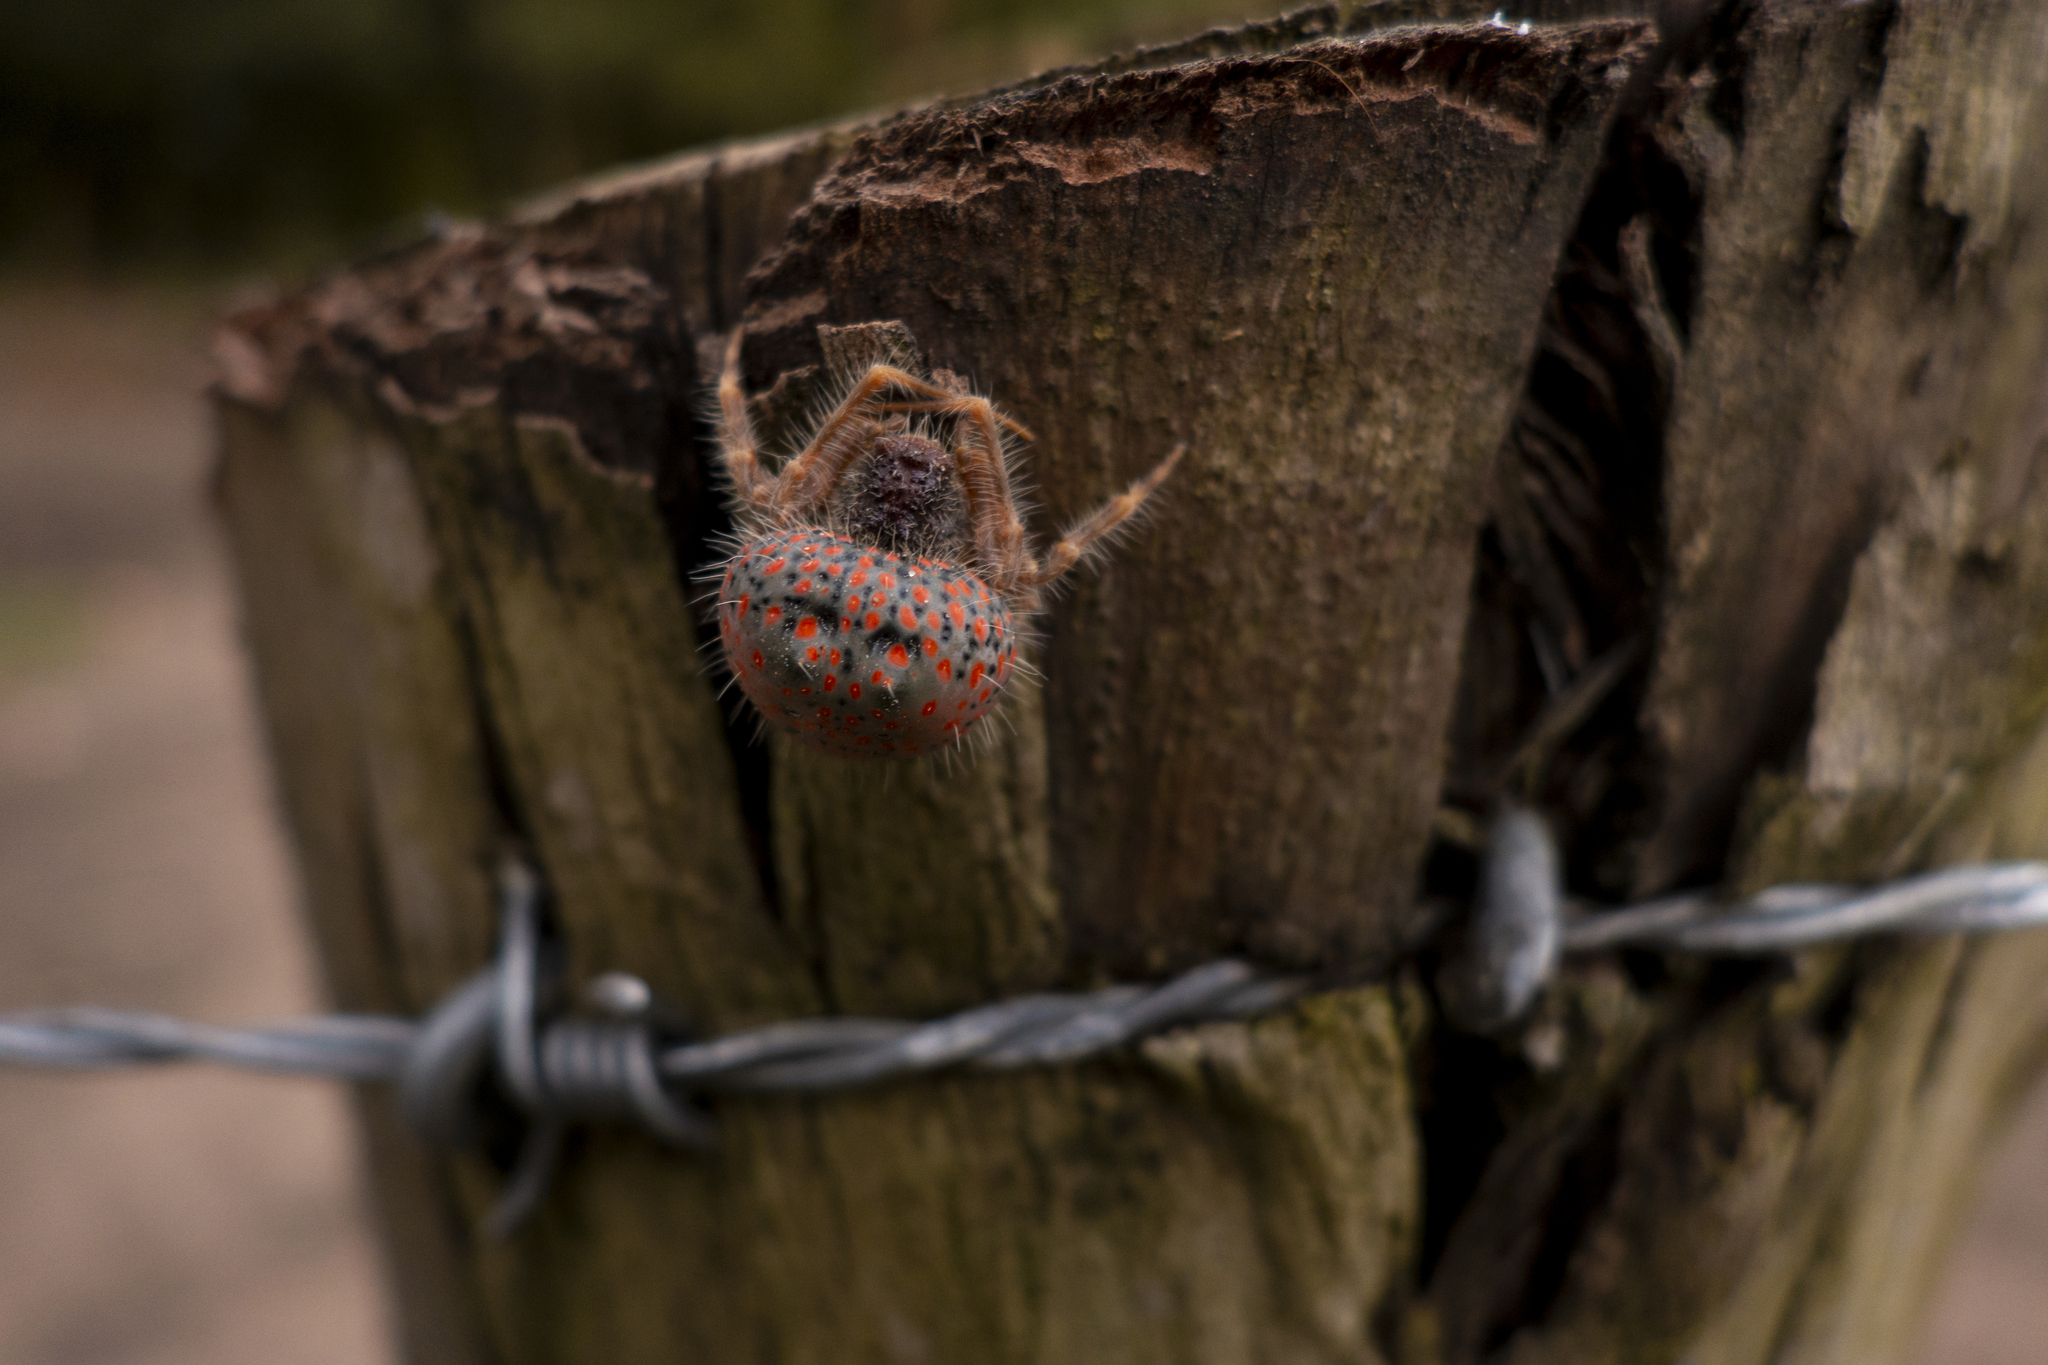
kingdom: Animalia
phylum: Arthropoda
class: Arachnida
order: Araneae
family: Araneidae
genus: Mastophora
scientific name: Mastophora carpogaster
